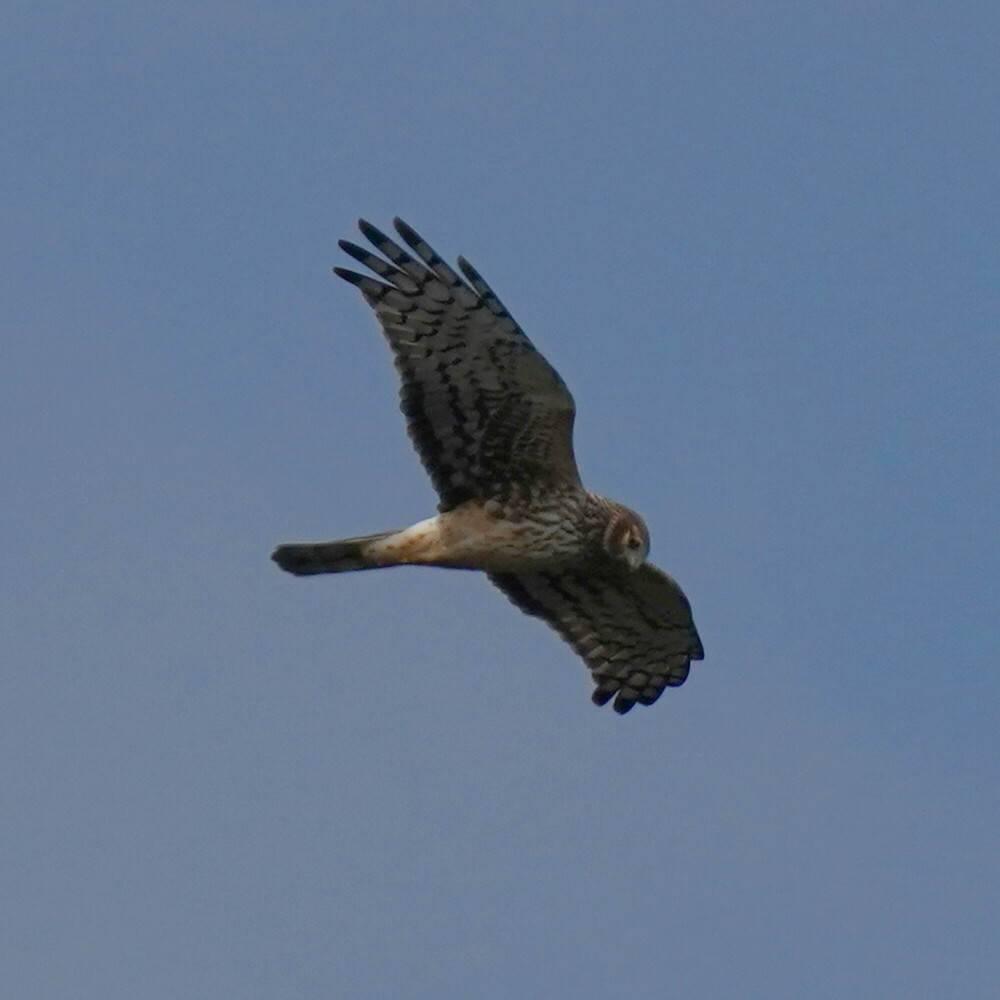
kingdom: Animalia
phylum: Chordata
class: Aves
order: Accipitriformes
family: Accipitridae
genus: Circus
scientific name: Circus cyaneus
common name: Hen harrier
